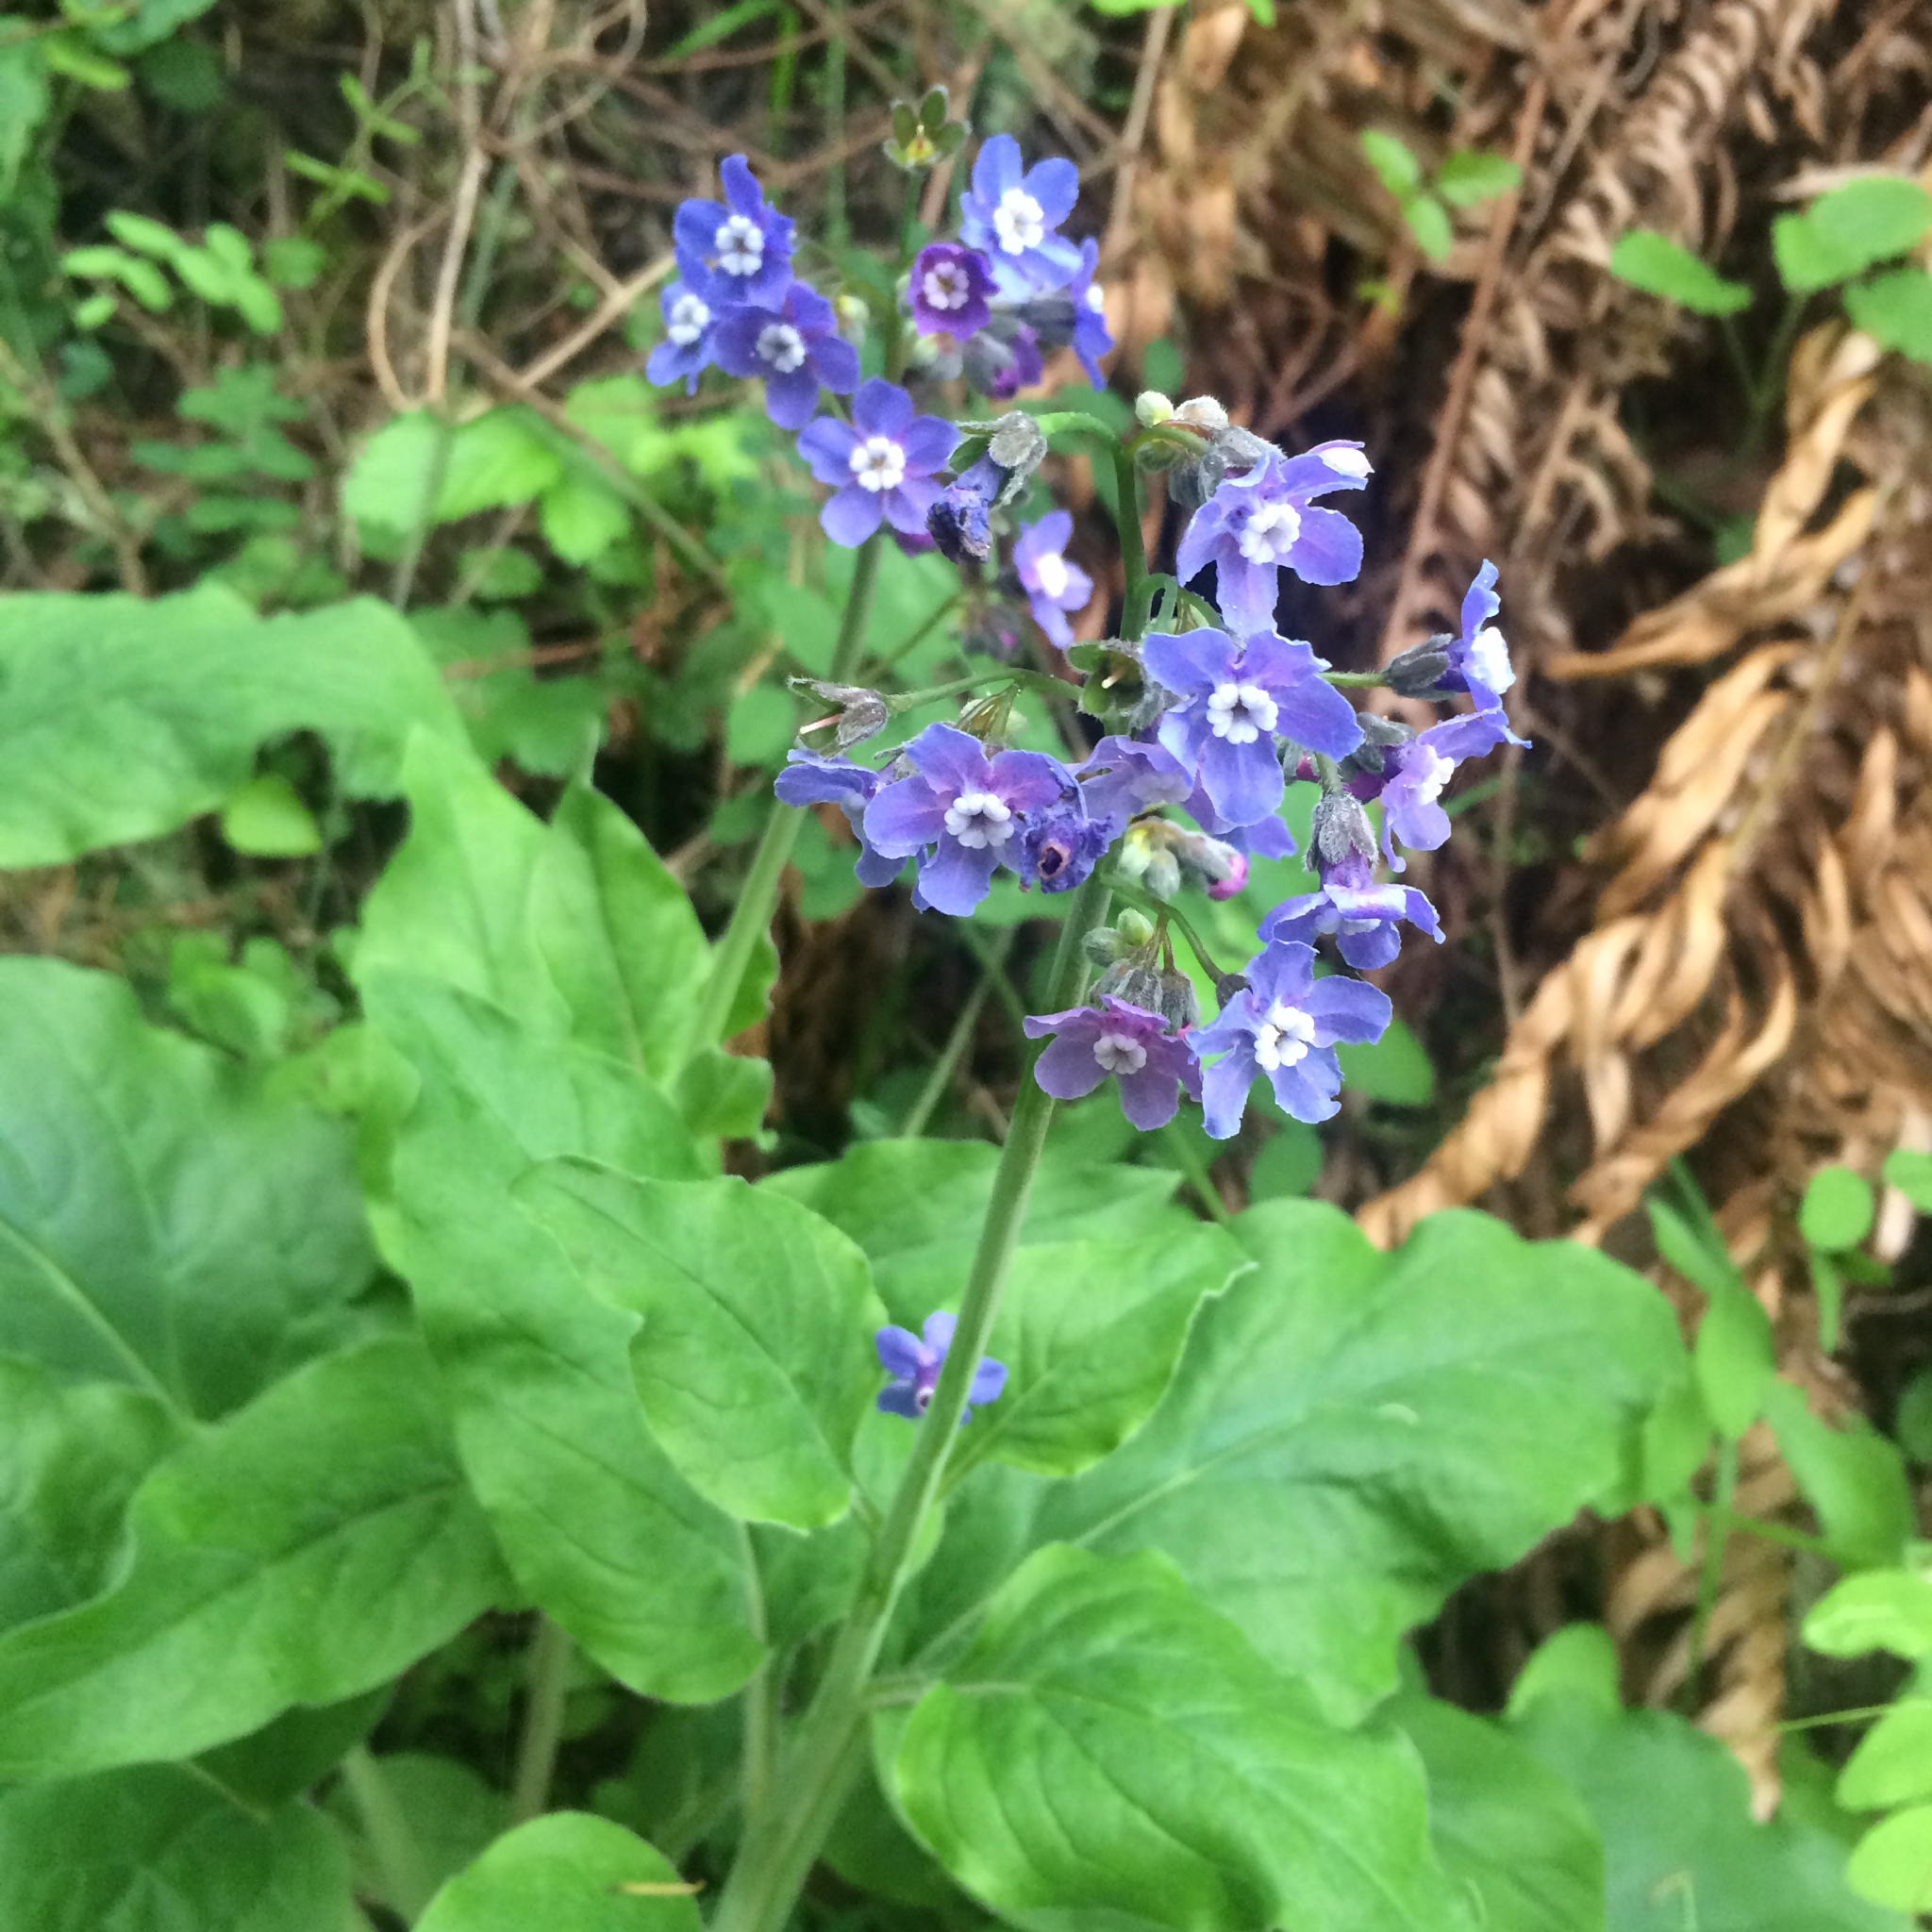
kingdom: Plantae
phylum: Tracheophyta
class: Magnoliopsida
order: Boraginales
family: Boraginaceae
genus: Adelinia
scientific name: Adelinia grande
